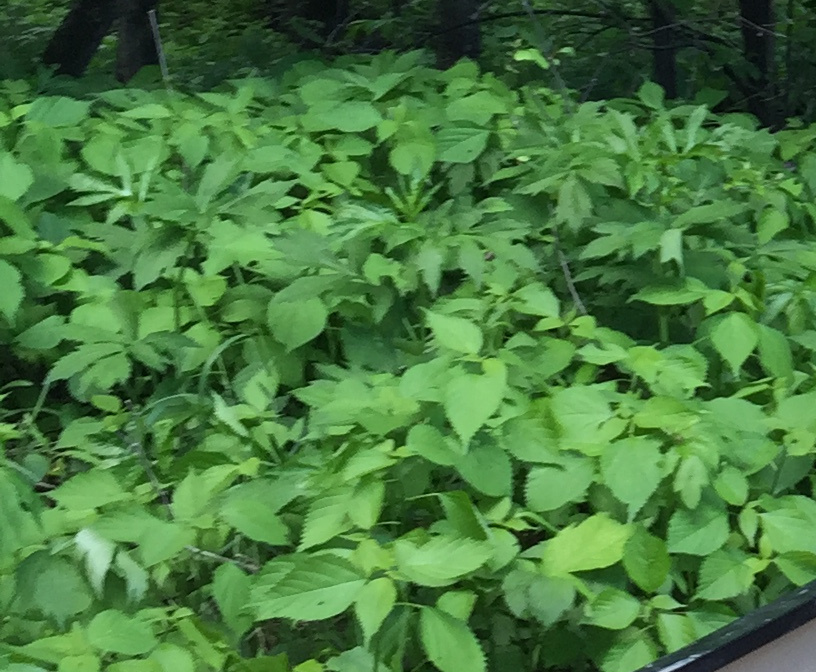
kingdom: Plantae
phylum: Tracheophyta
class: Magnoliopsida
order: Rosales
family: Urticaceae
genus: Laportea
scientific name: Laportea canadensis
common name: Canada nettle
